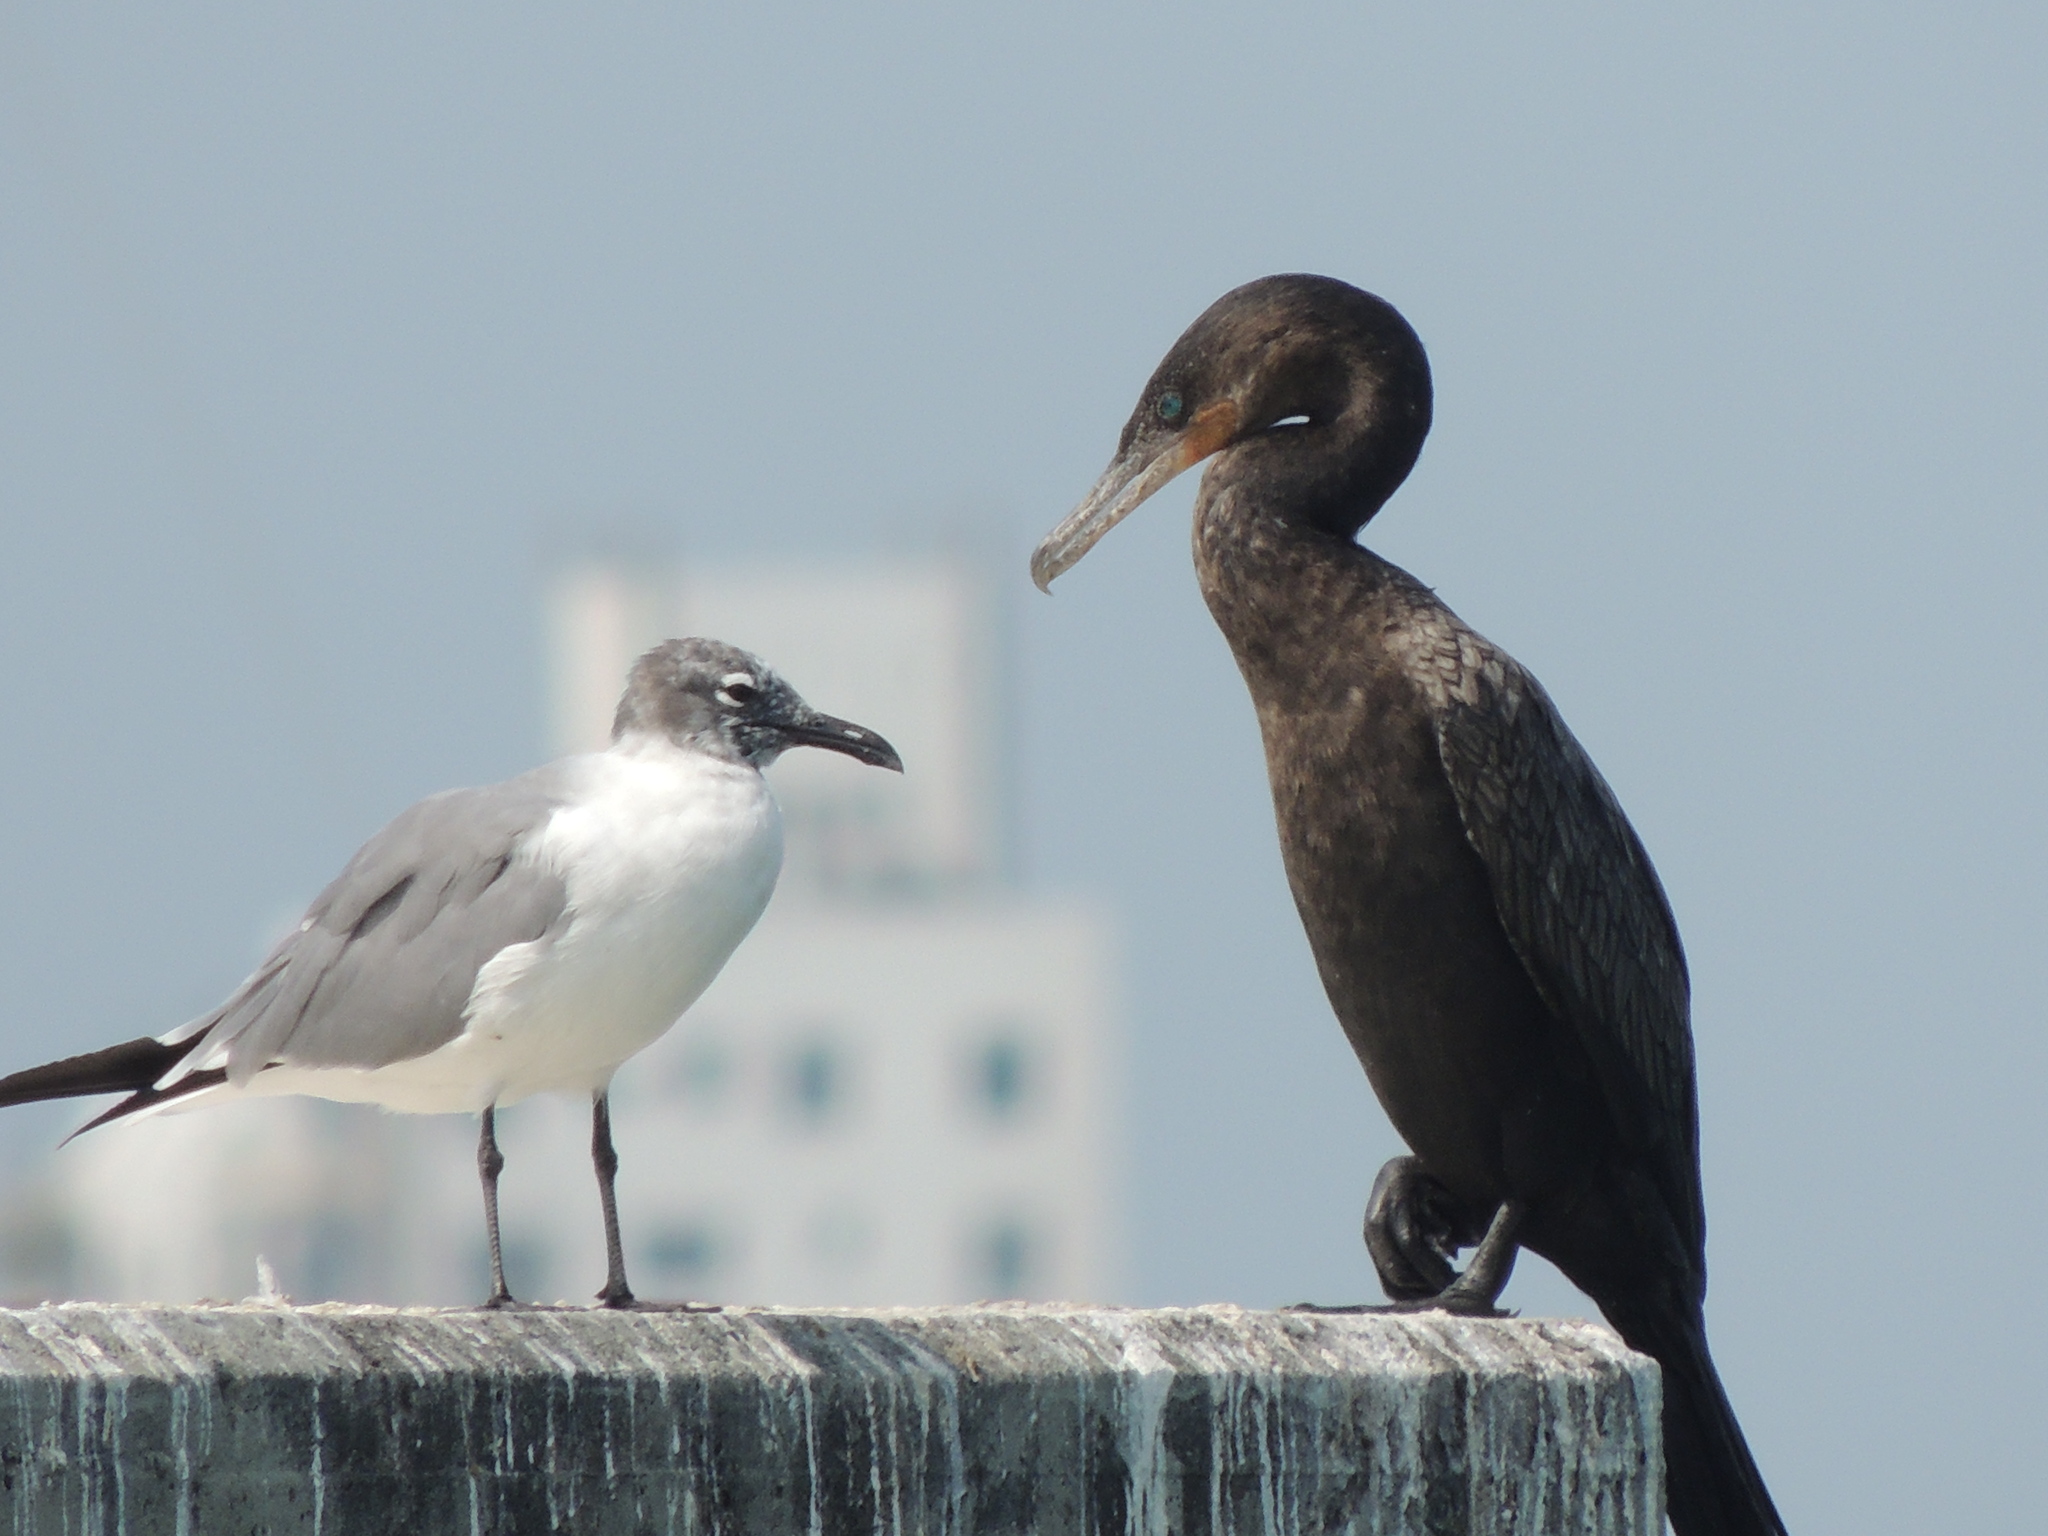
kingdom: Animalia
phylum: Chordata
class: Aves
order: Suliformes
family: Phalacrocoracidae
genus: Phalacrocorax
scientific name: Phalacrocorax brasilianus
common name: Neotropic cormorant
